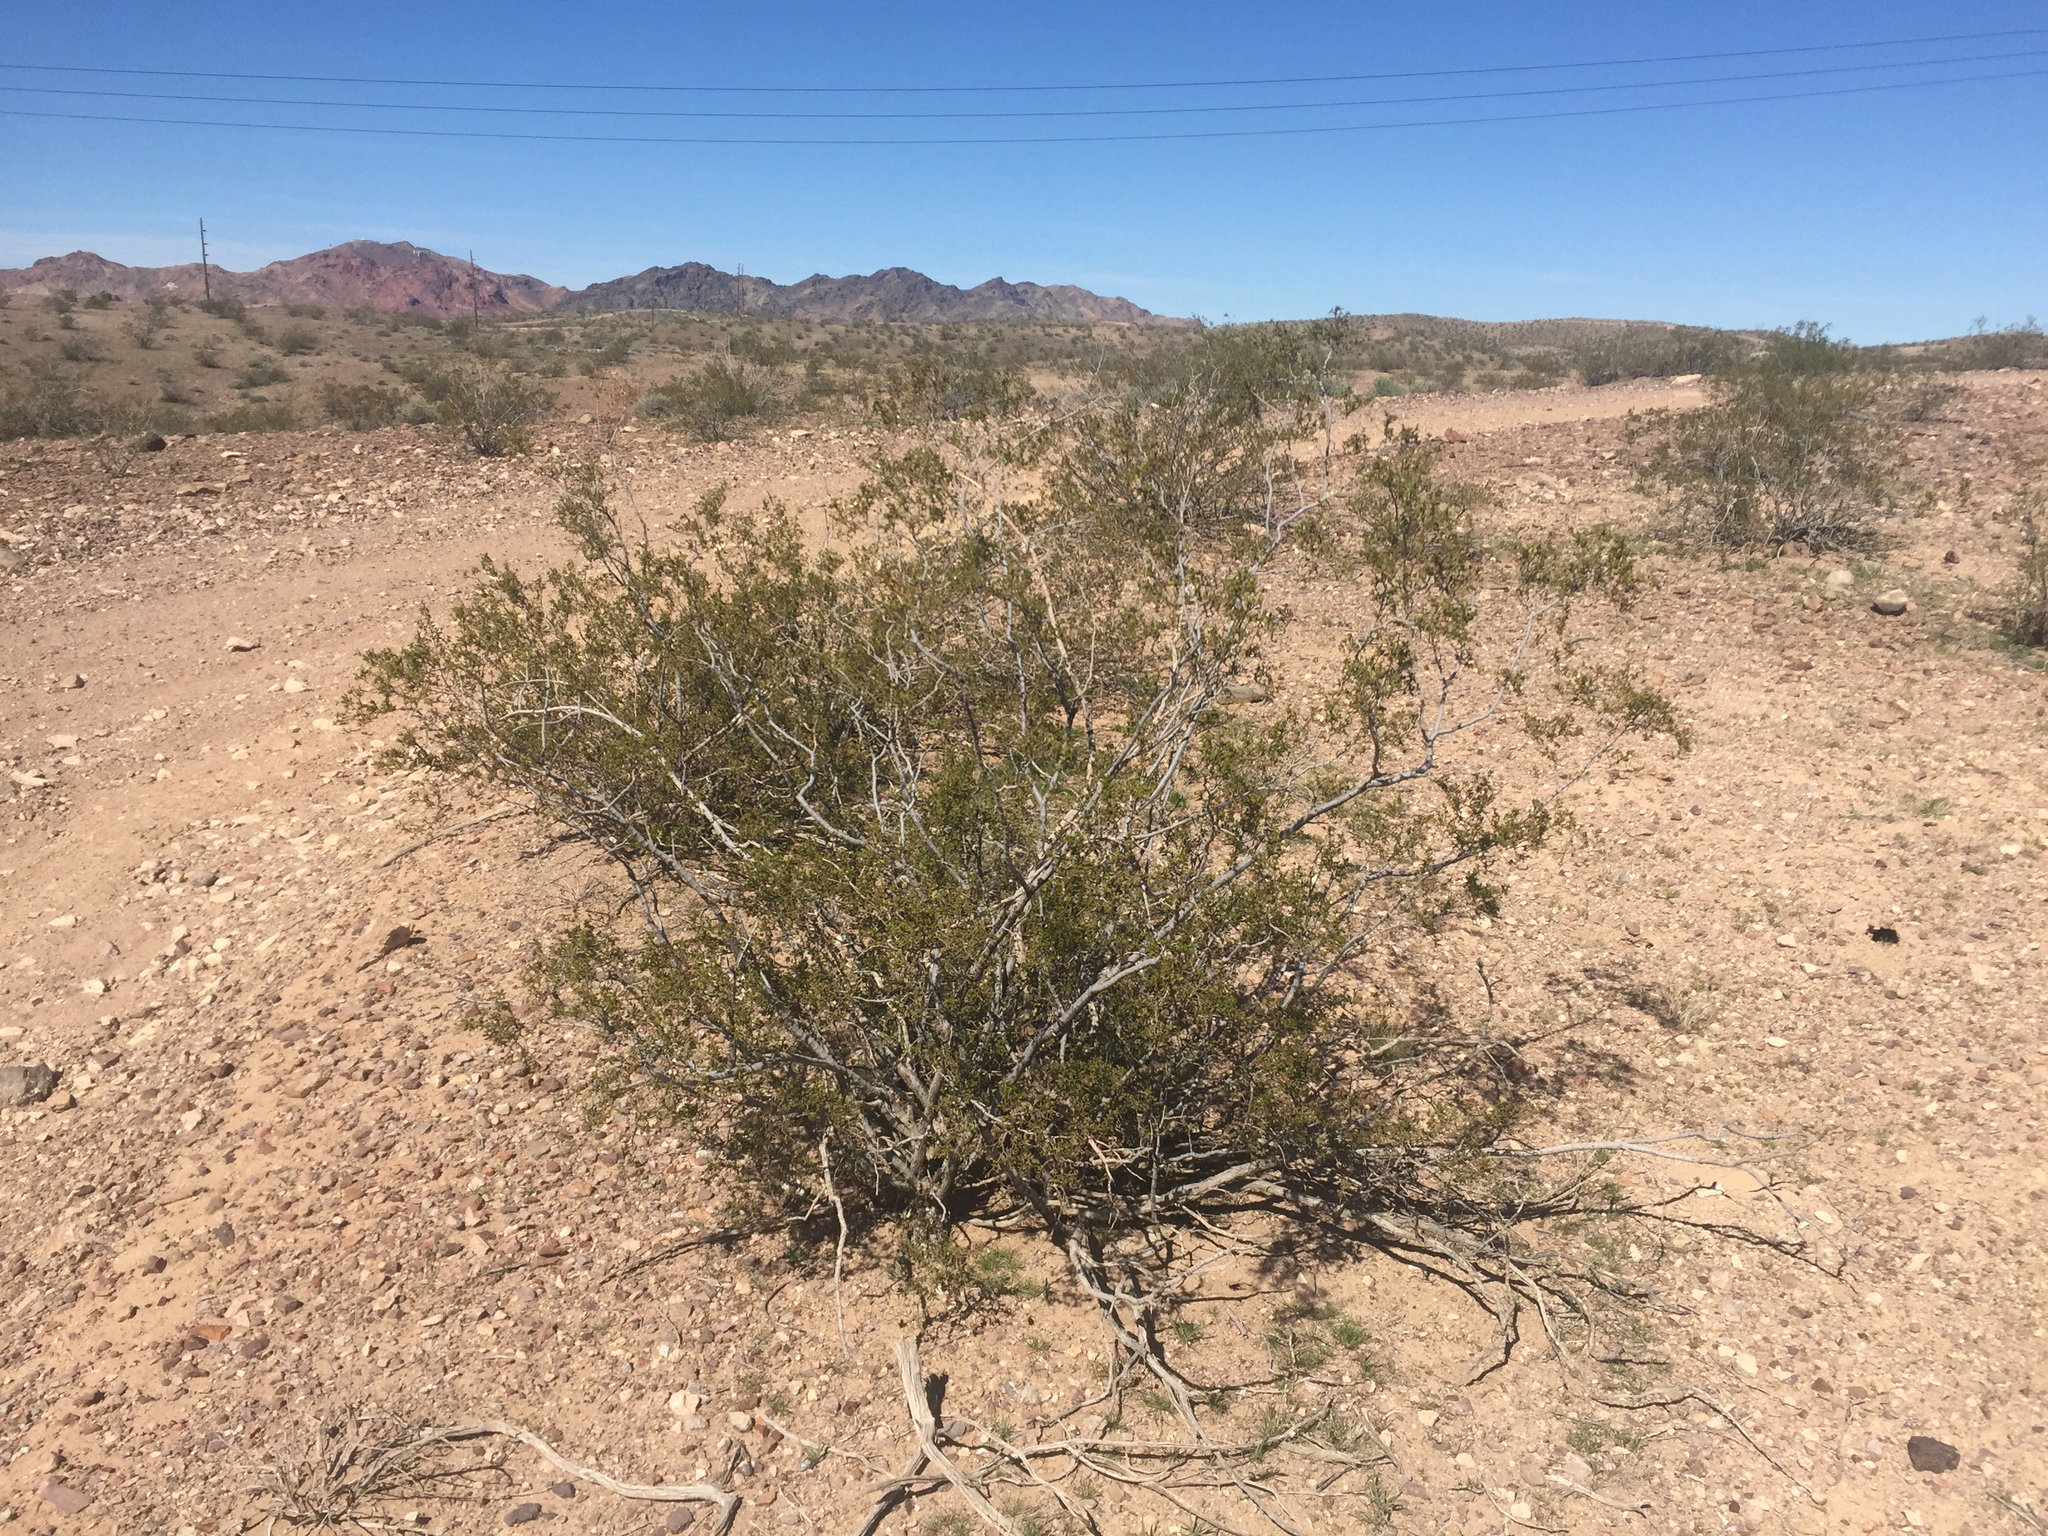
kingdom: Plantae
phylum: Tracheophyta
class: Magnoliopsida
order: Zygophyllales
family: Zygophyllaceae
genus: Larrea
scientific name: Larrea tridentata
